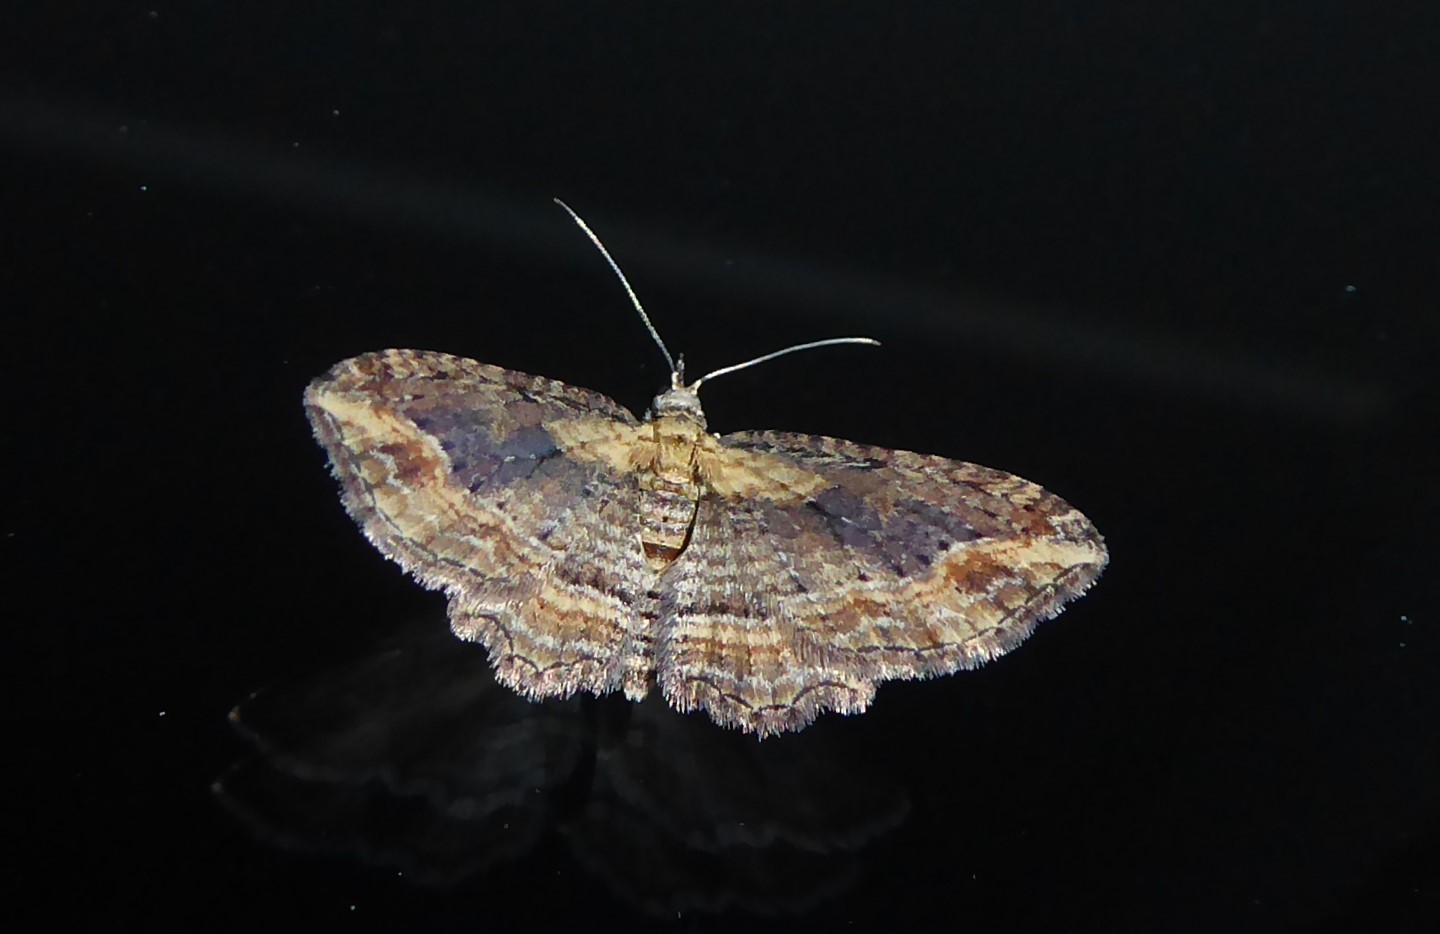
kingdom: Animalia
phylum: Arthropoda
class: Insecta
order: Lepidoptera
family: Geometridae
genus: Chloroclystis
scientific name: Chloroclystis filata
